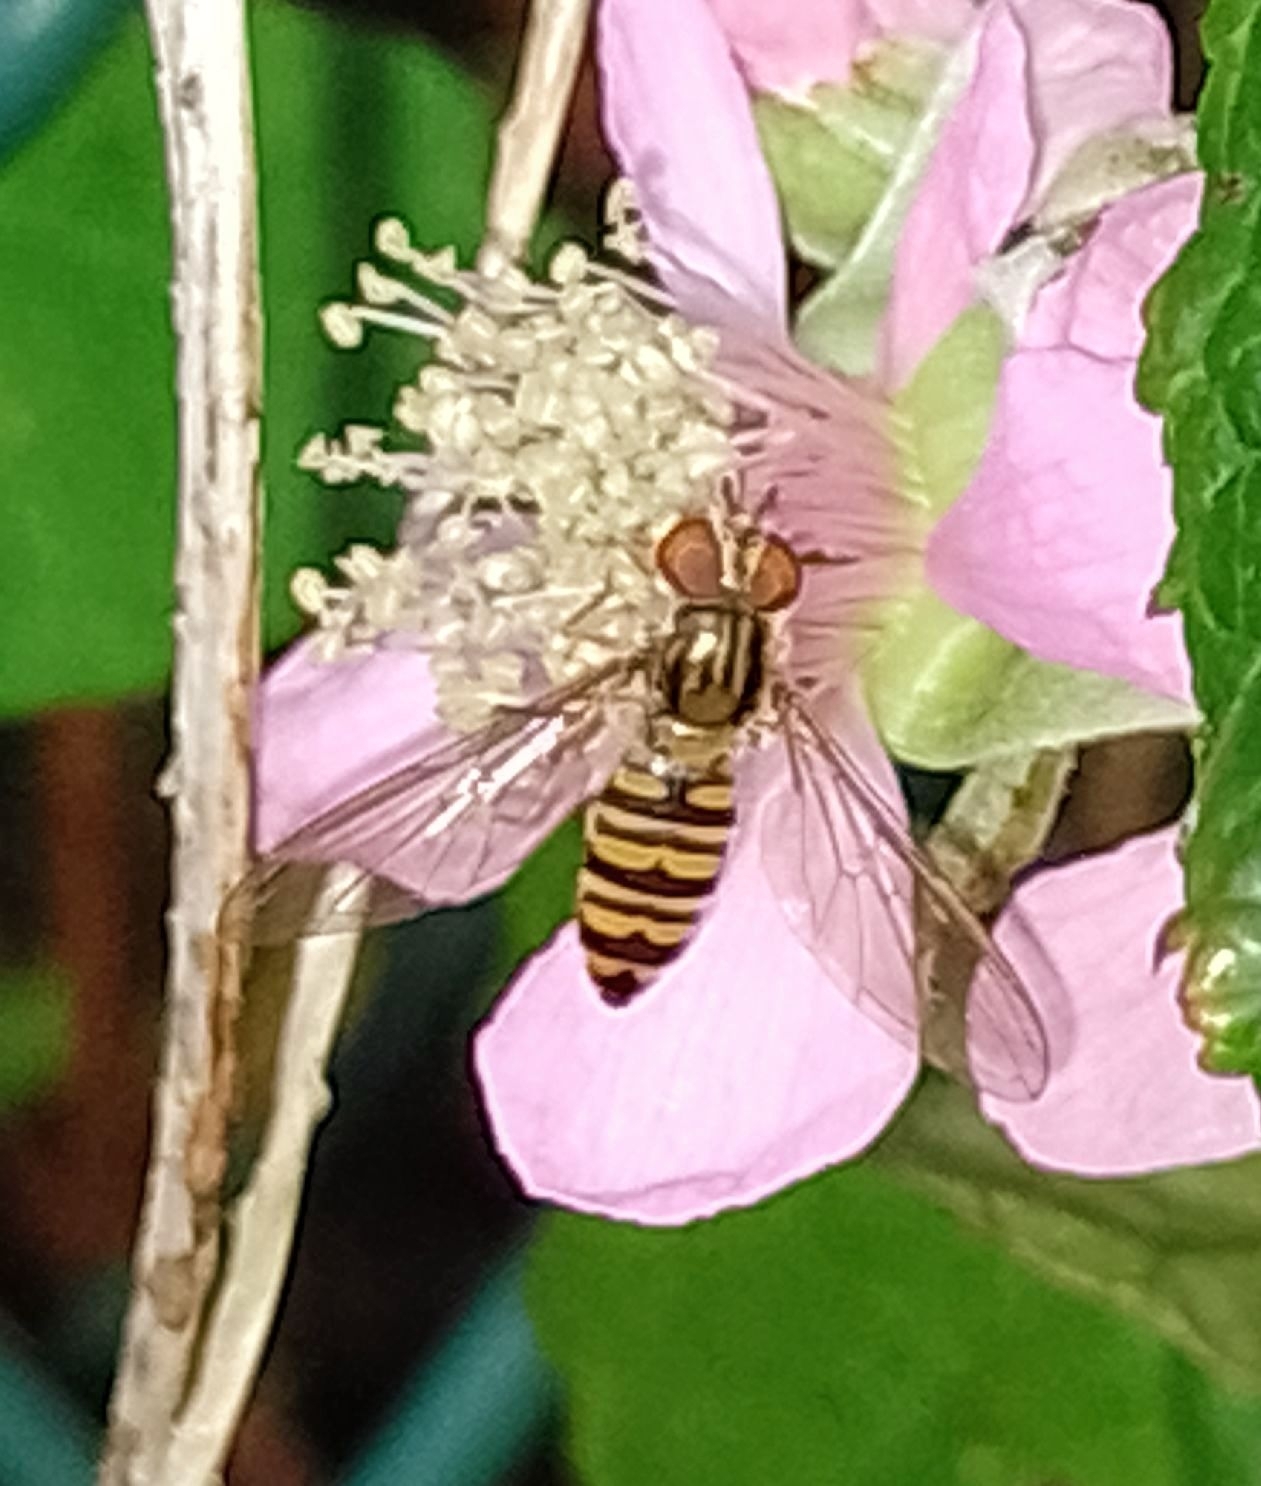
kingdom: Animalia
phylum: Arthropoda
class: Insecta
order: Diptera
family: Syrphidae
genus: Episyrphus
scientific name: Episyrphus balteatus
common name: Marmalade hoverfly
